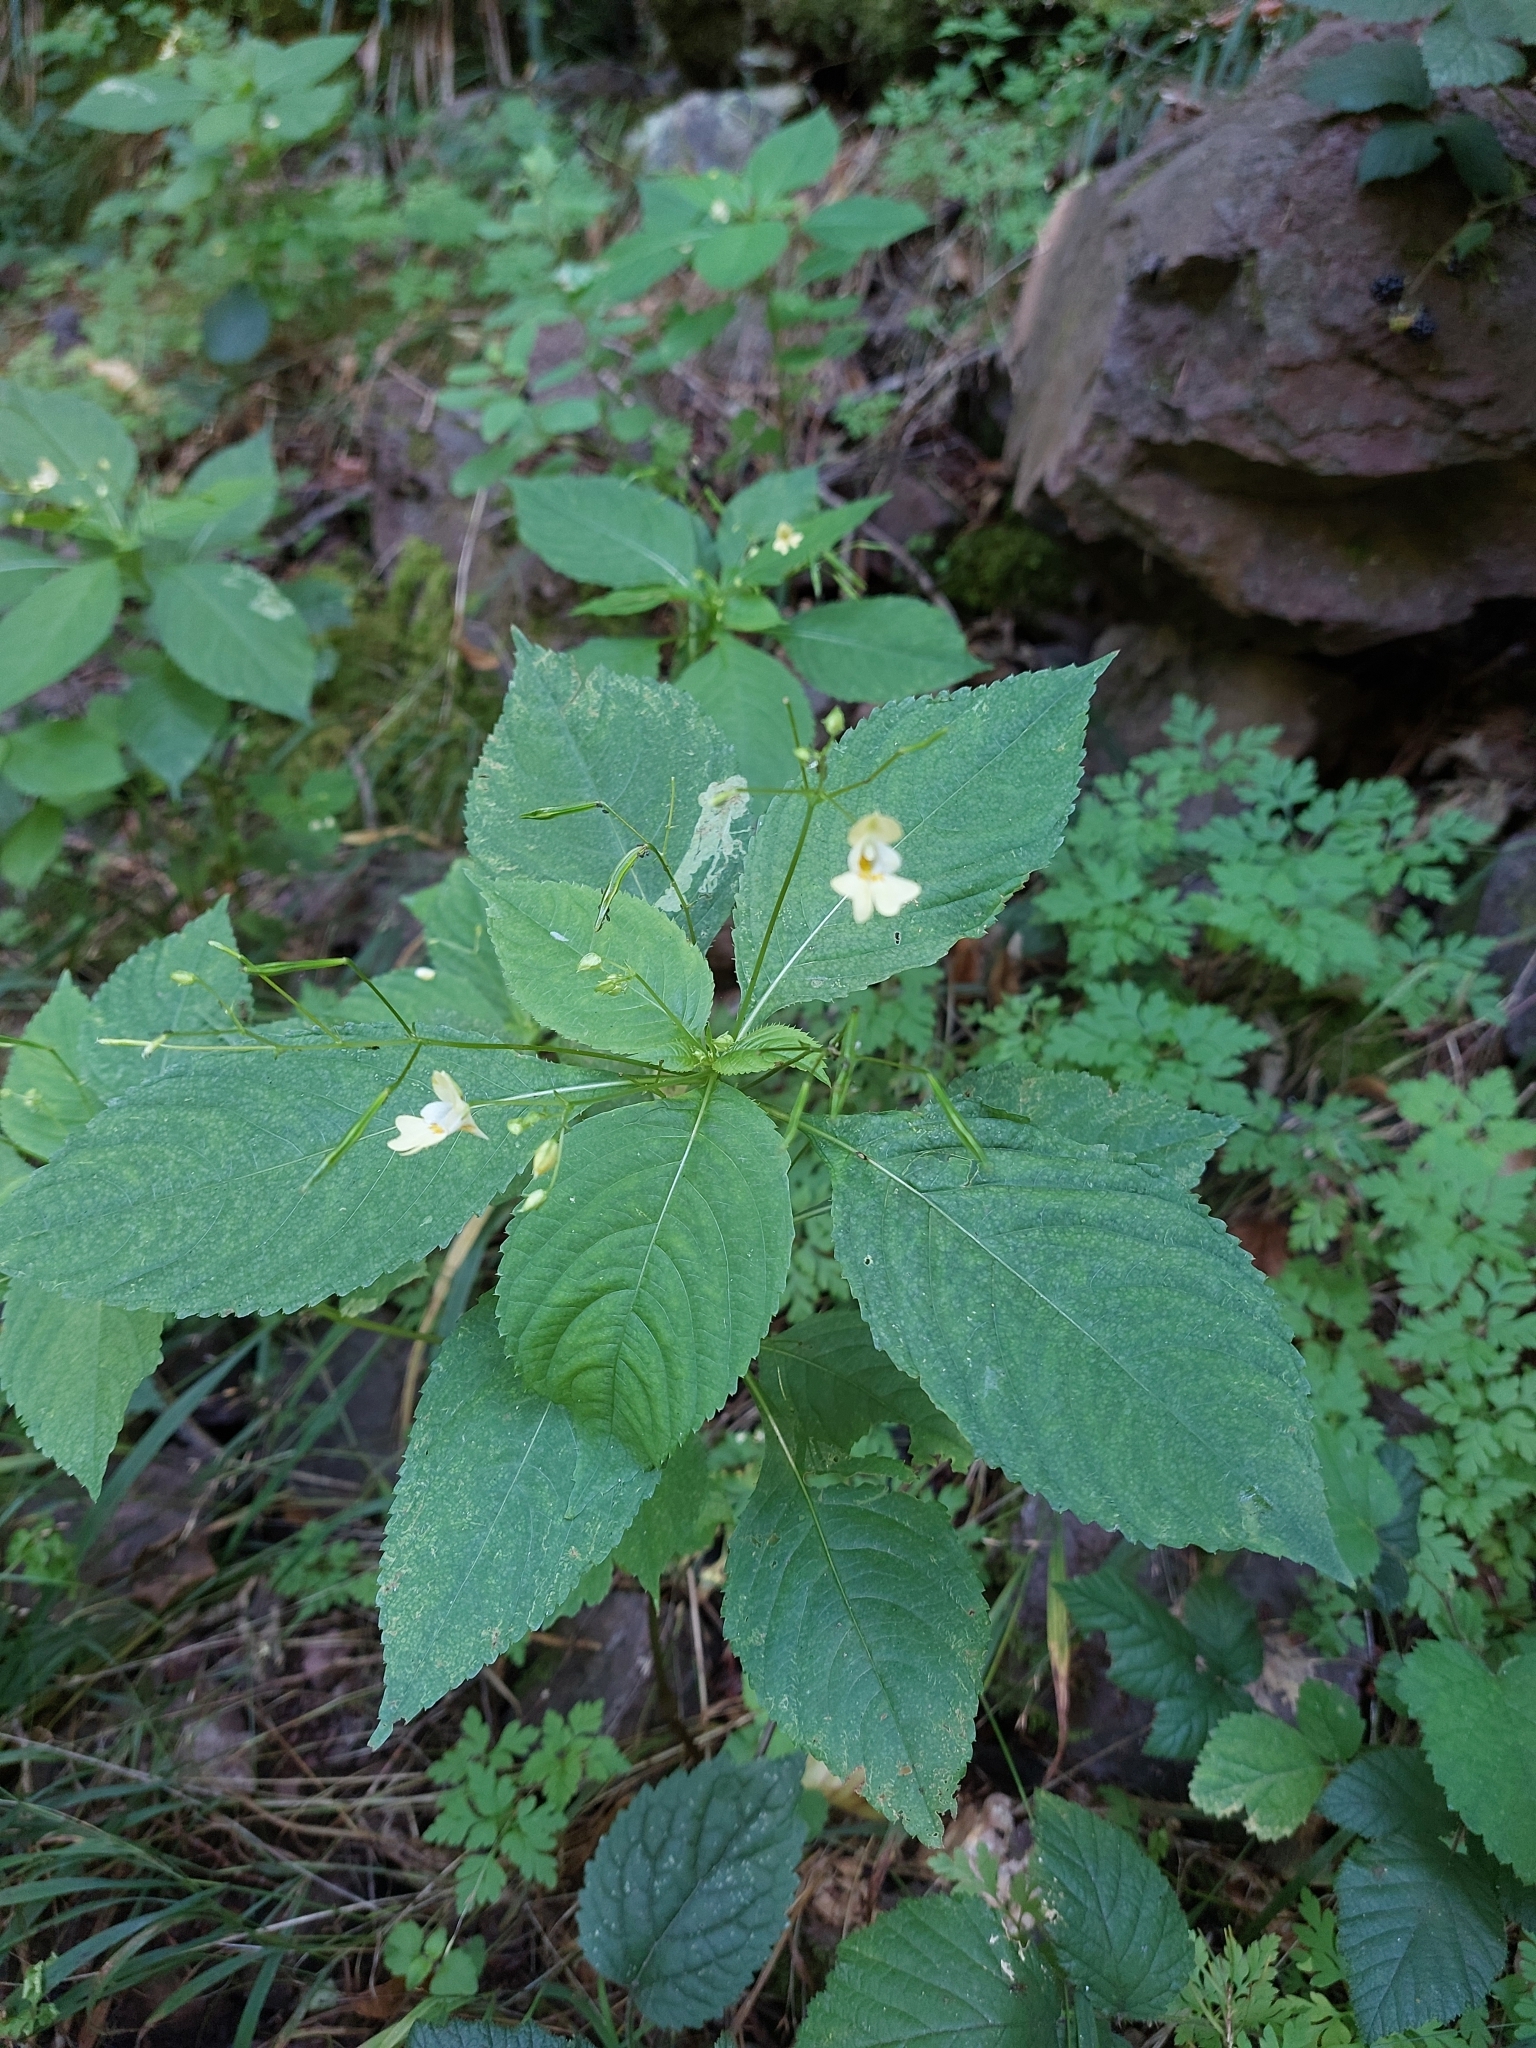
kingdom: Plantae
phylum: Tracheophyta
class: Magnoliopsida
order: Ericales
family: Balsaminaceae
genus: Impatiens
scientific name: Impatiens parviflora
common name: Small balsam
